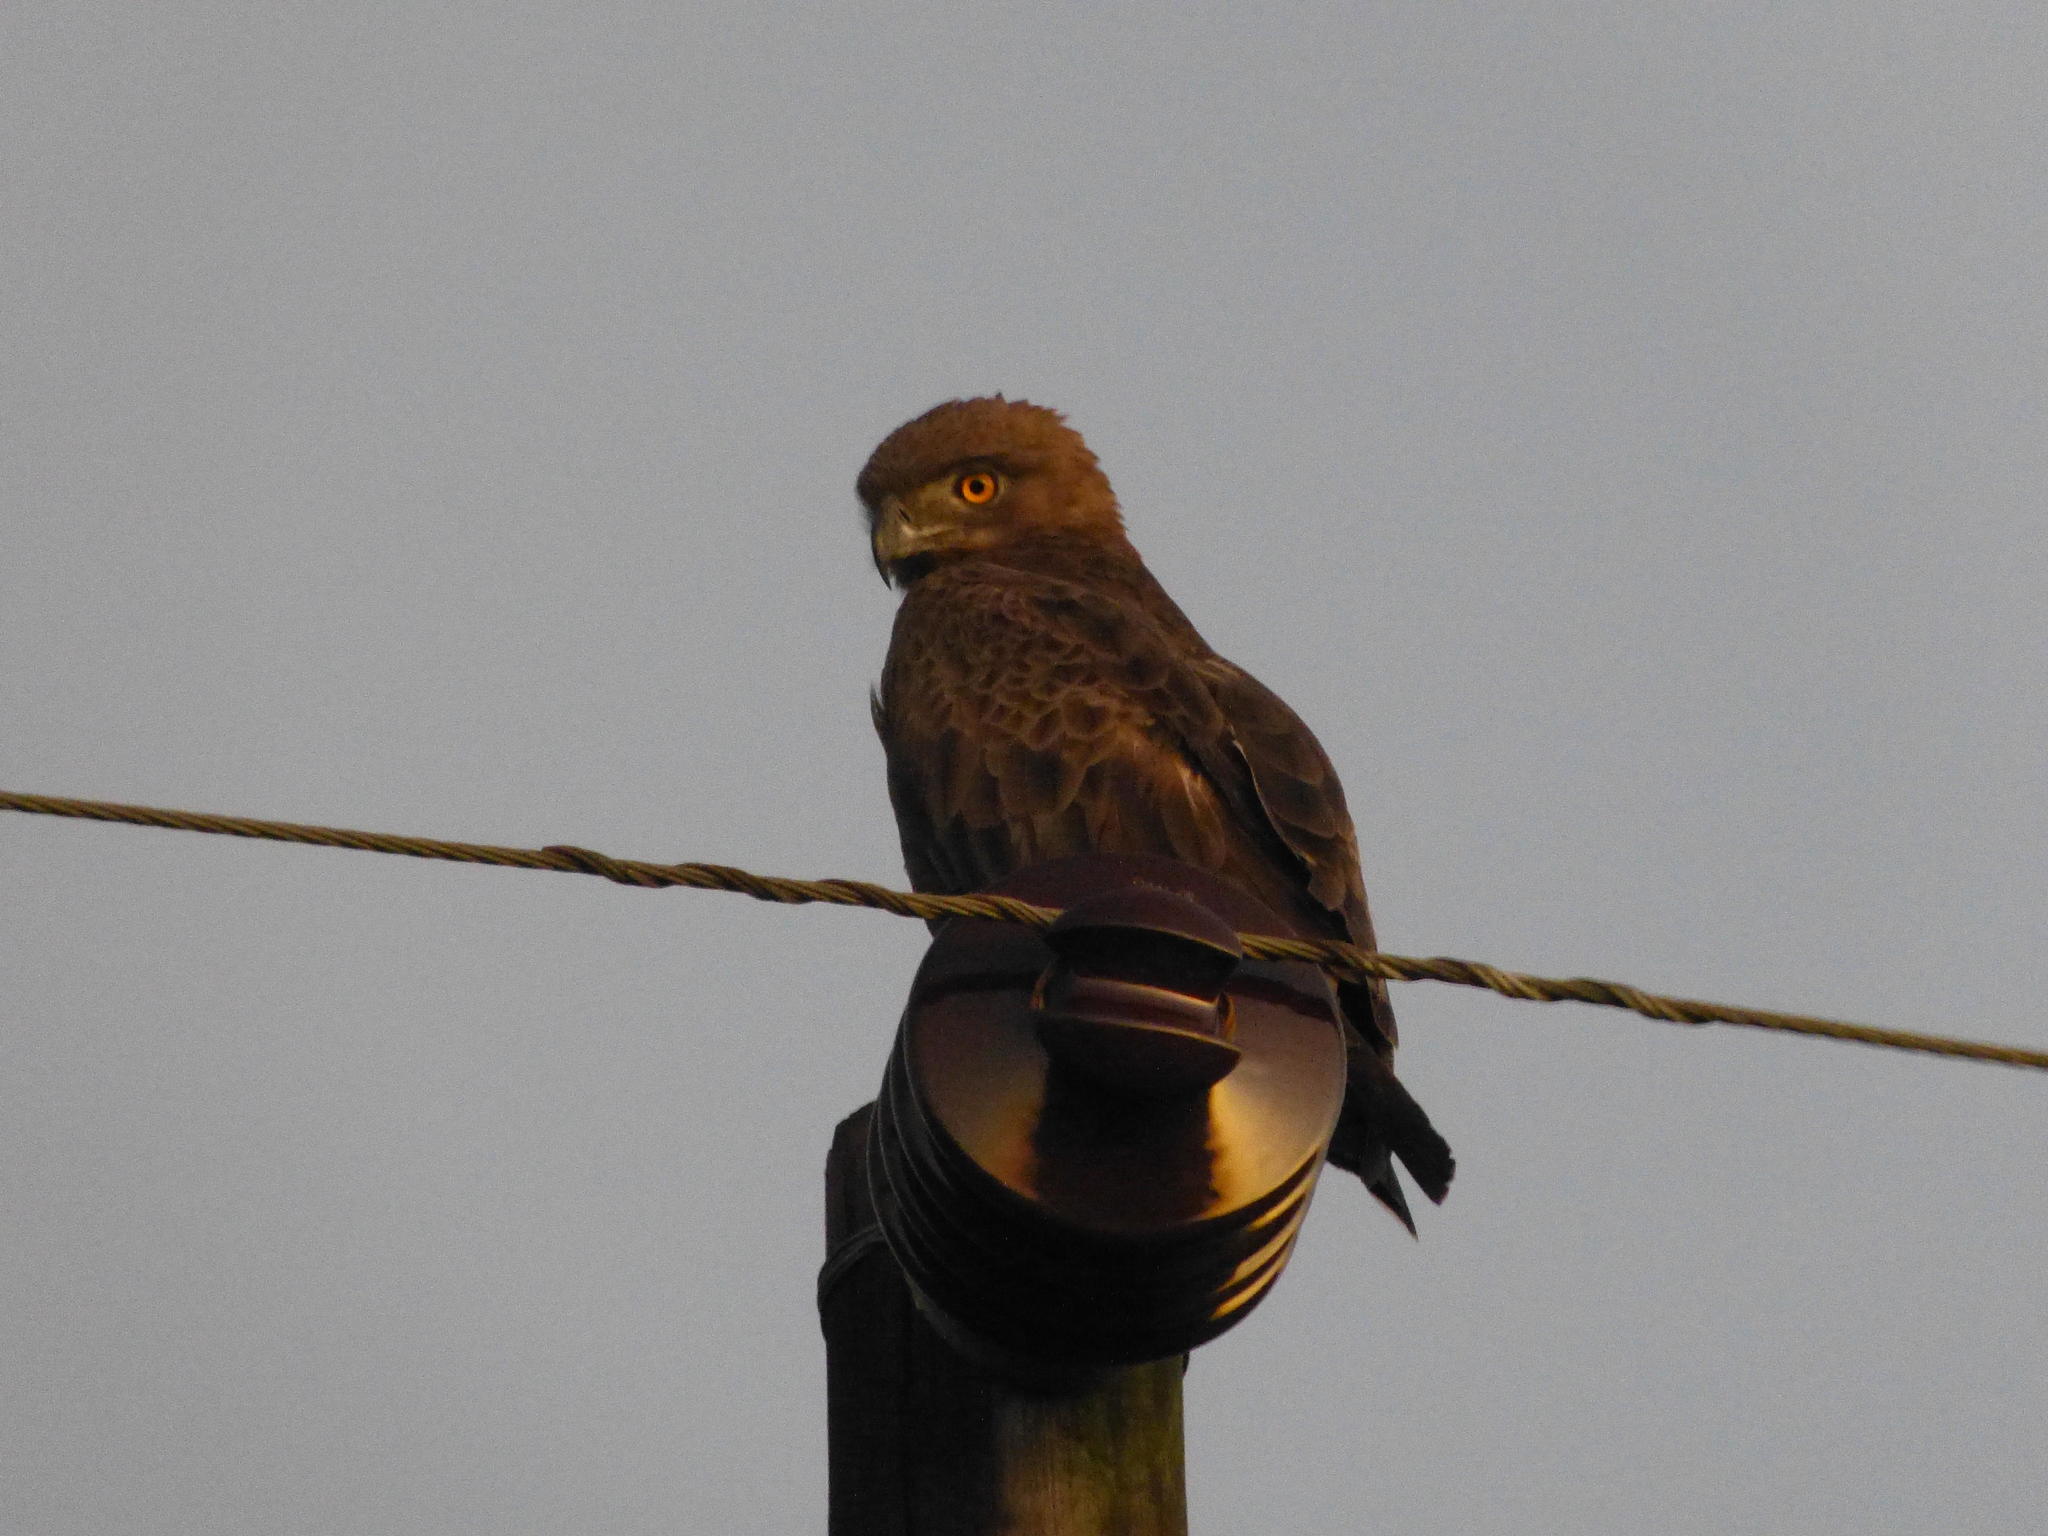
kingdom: Animalia
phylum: Chordata
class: Aves
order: Accipitriformes
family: Accipitridae
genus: Circaetus
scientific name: Circaetus cinereus
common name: Brown snake eagle
